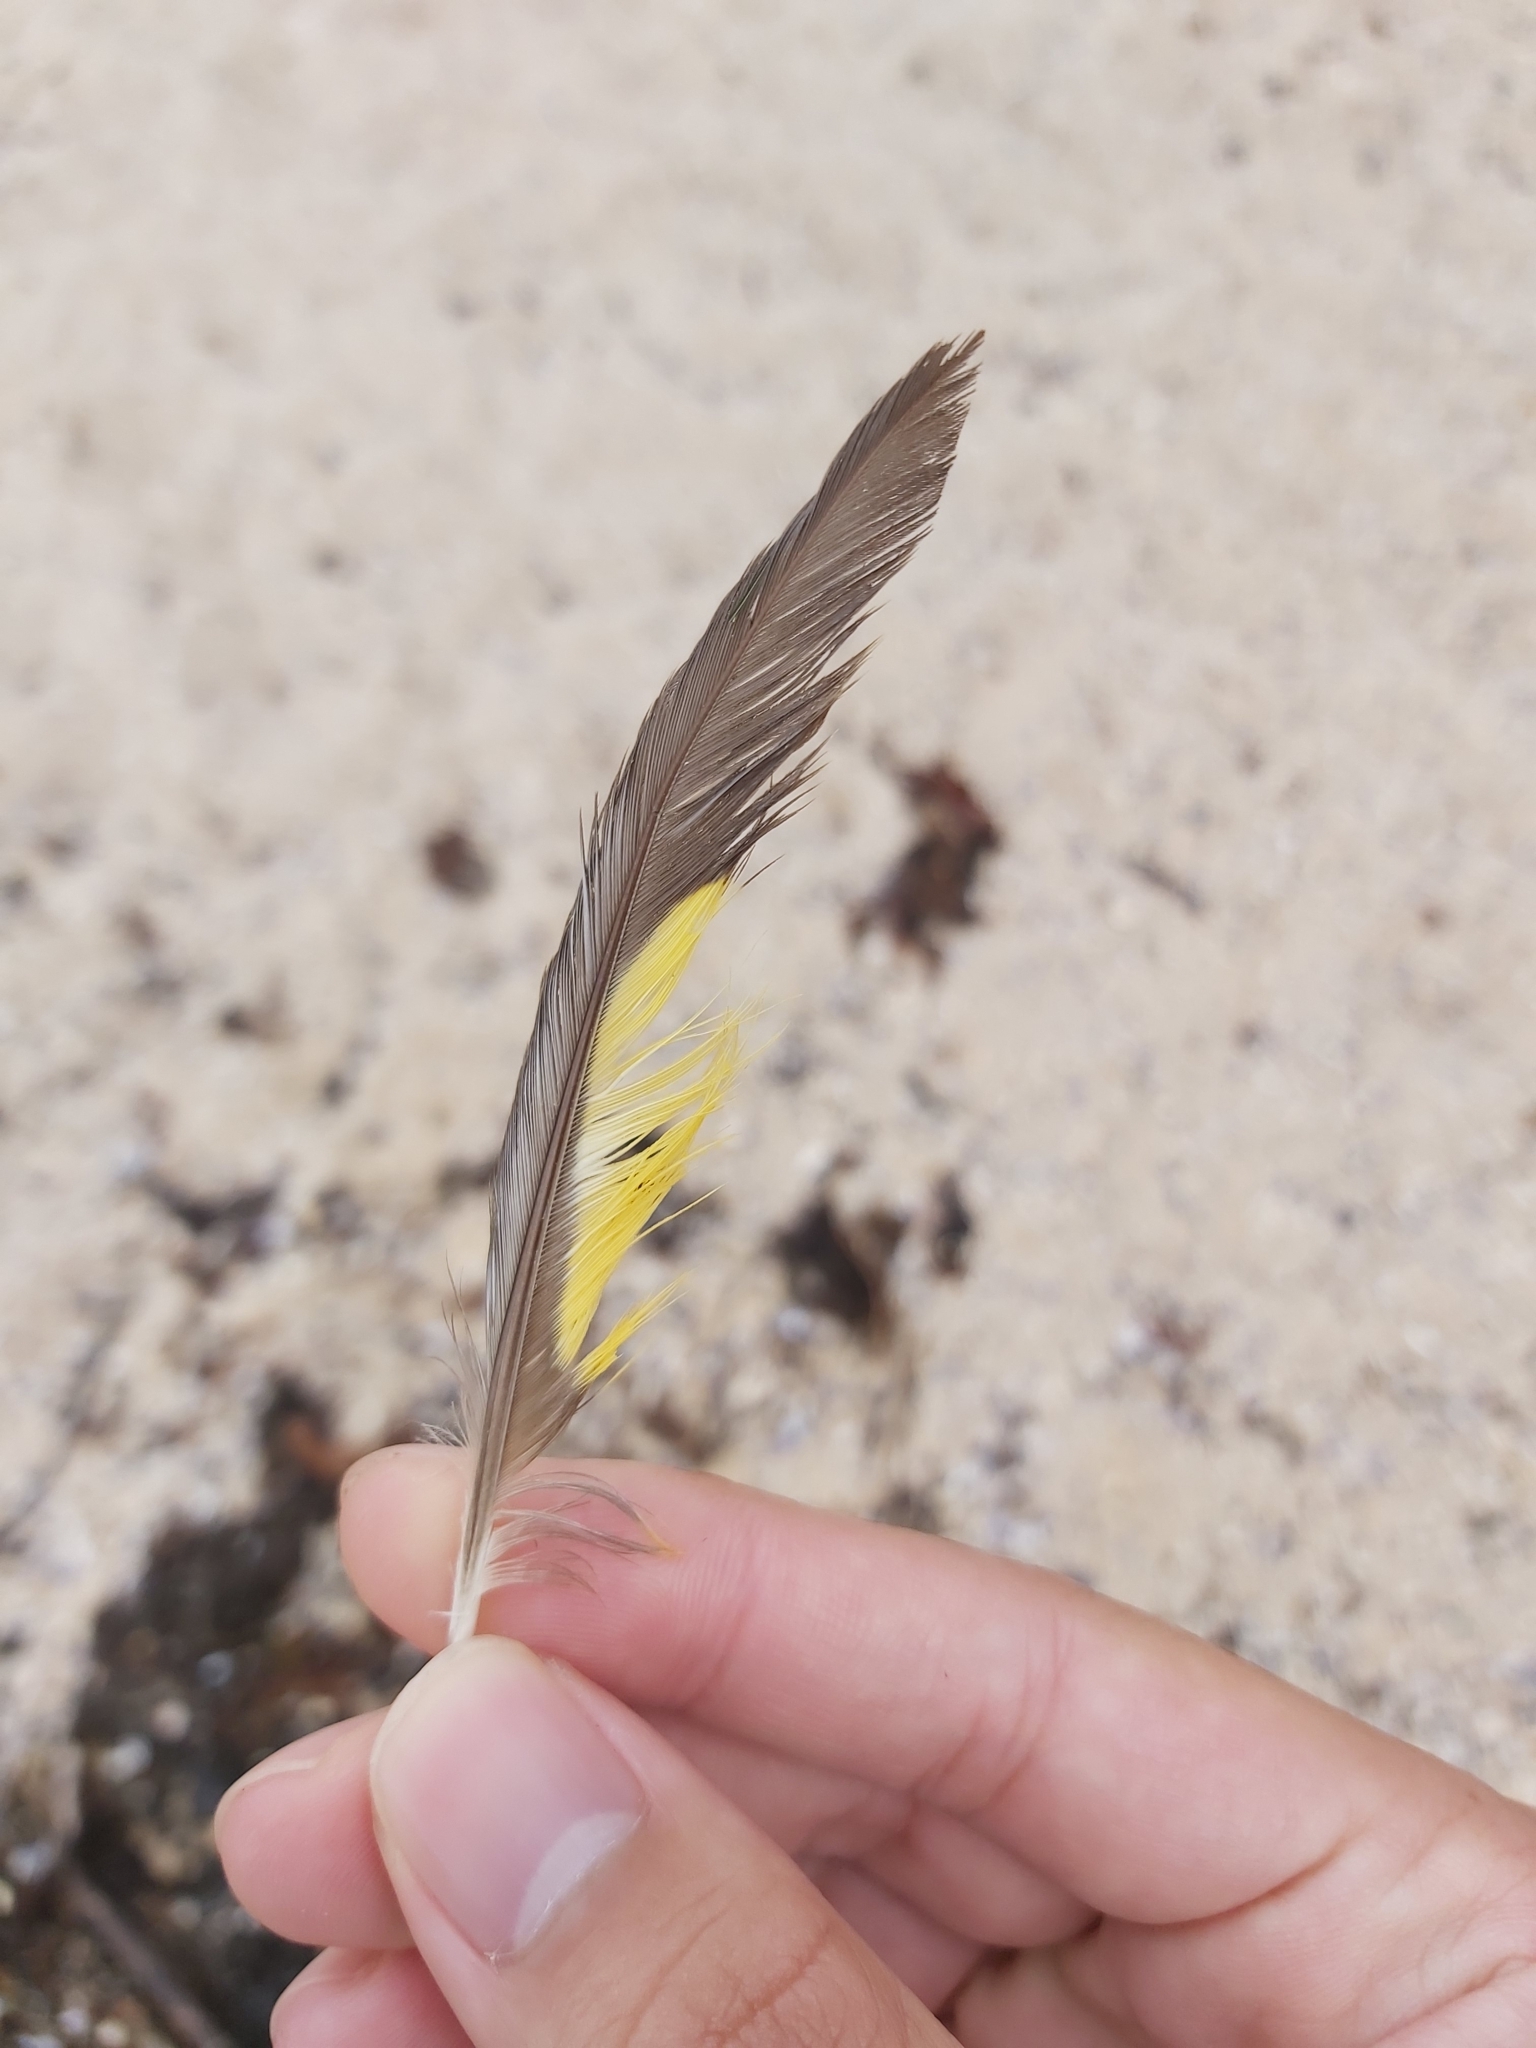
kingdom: Animalia
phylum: Chordata
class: Aves
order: Psittaciformes
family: Psittacidae
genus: Trichoglossus
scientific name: Trichoglossus haematodus
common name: Coconut lorikeet
